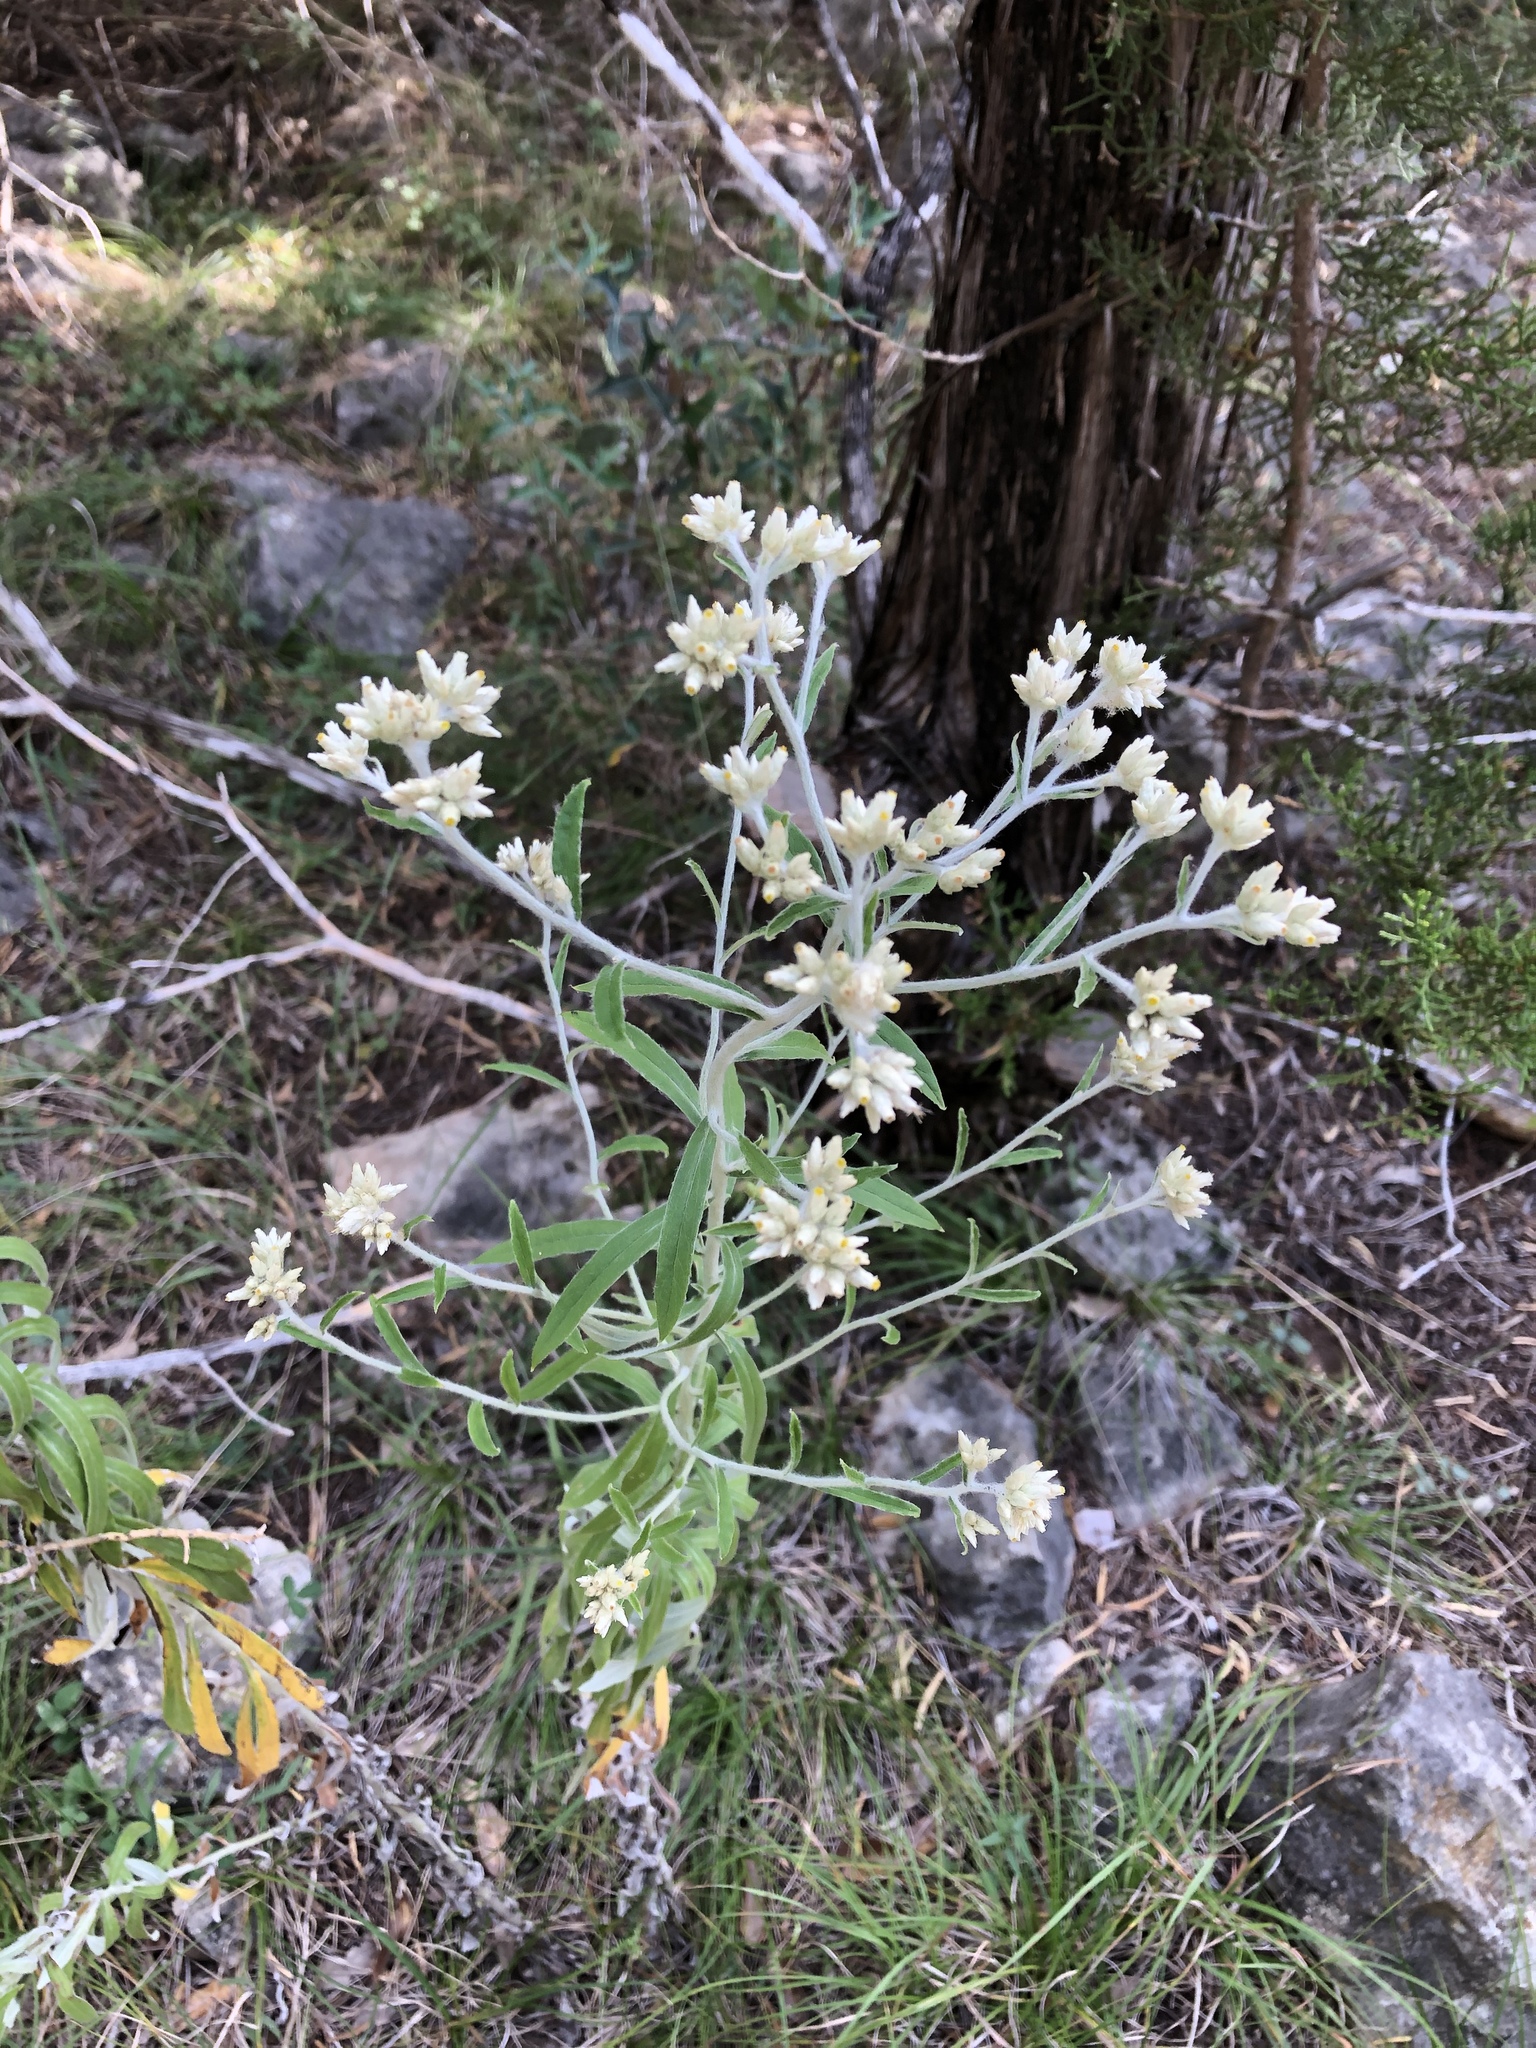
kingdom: Plantae
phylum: Tracheophyta
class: Magnoliopsida
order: Asterales
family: Asteraceae
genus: Pseudognaphalium
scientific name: Pseudognaphalium obtusifolium
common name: Eastern rabbit-tobacco
